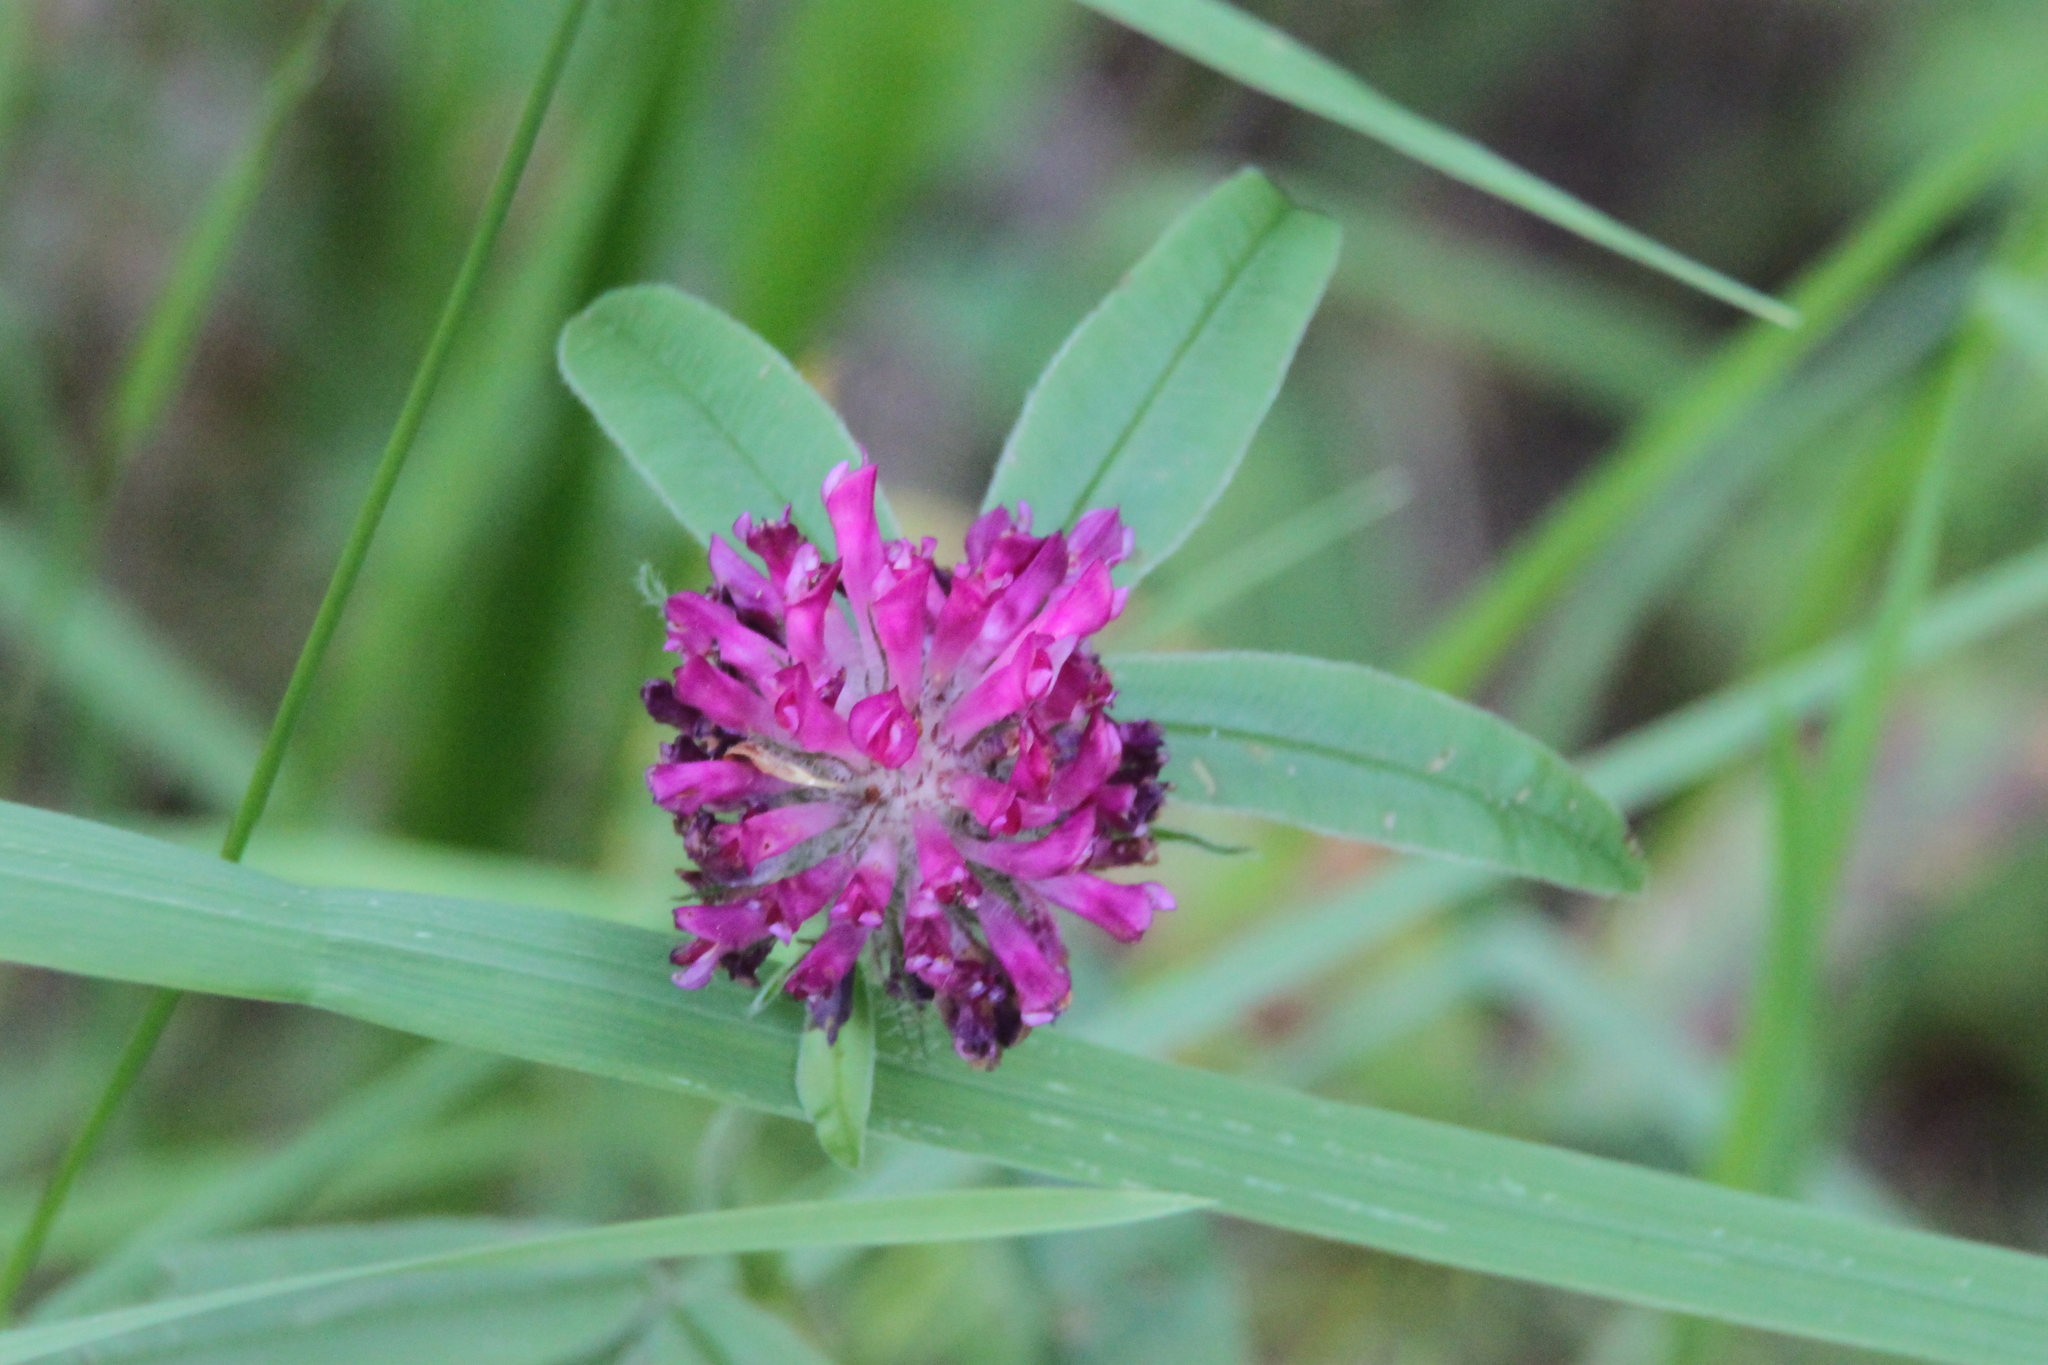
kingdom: Plantae
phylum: Tracheophyta
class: Magnoliopsida
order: Fabales
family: Fabaceae
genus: Trifolium
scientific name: Trifolium alpestre
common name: Owl-head clover
